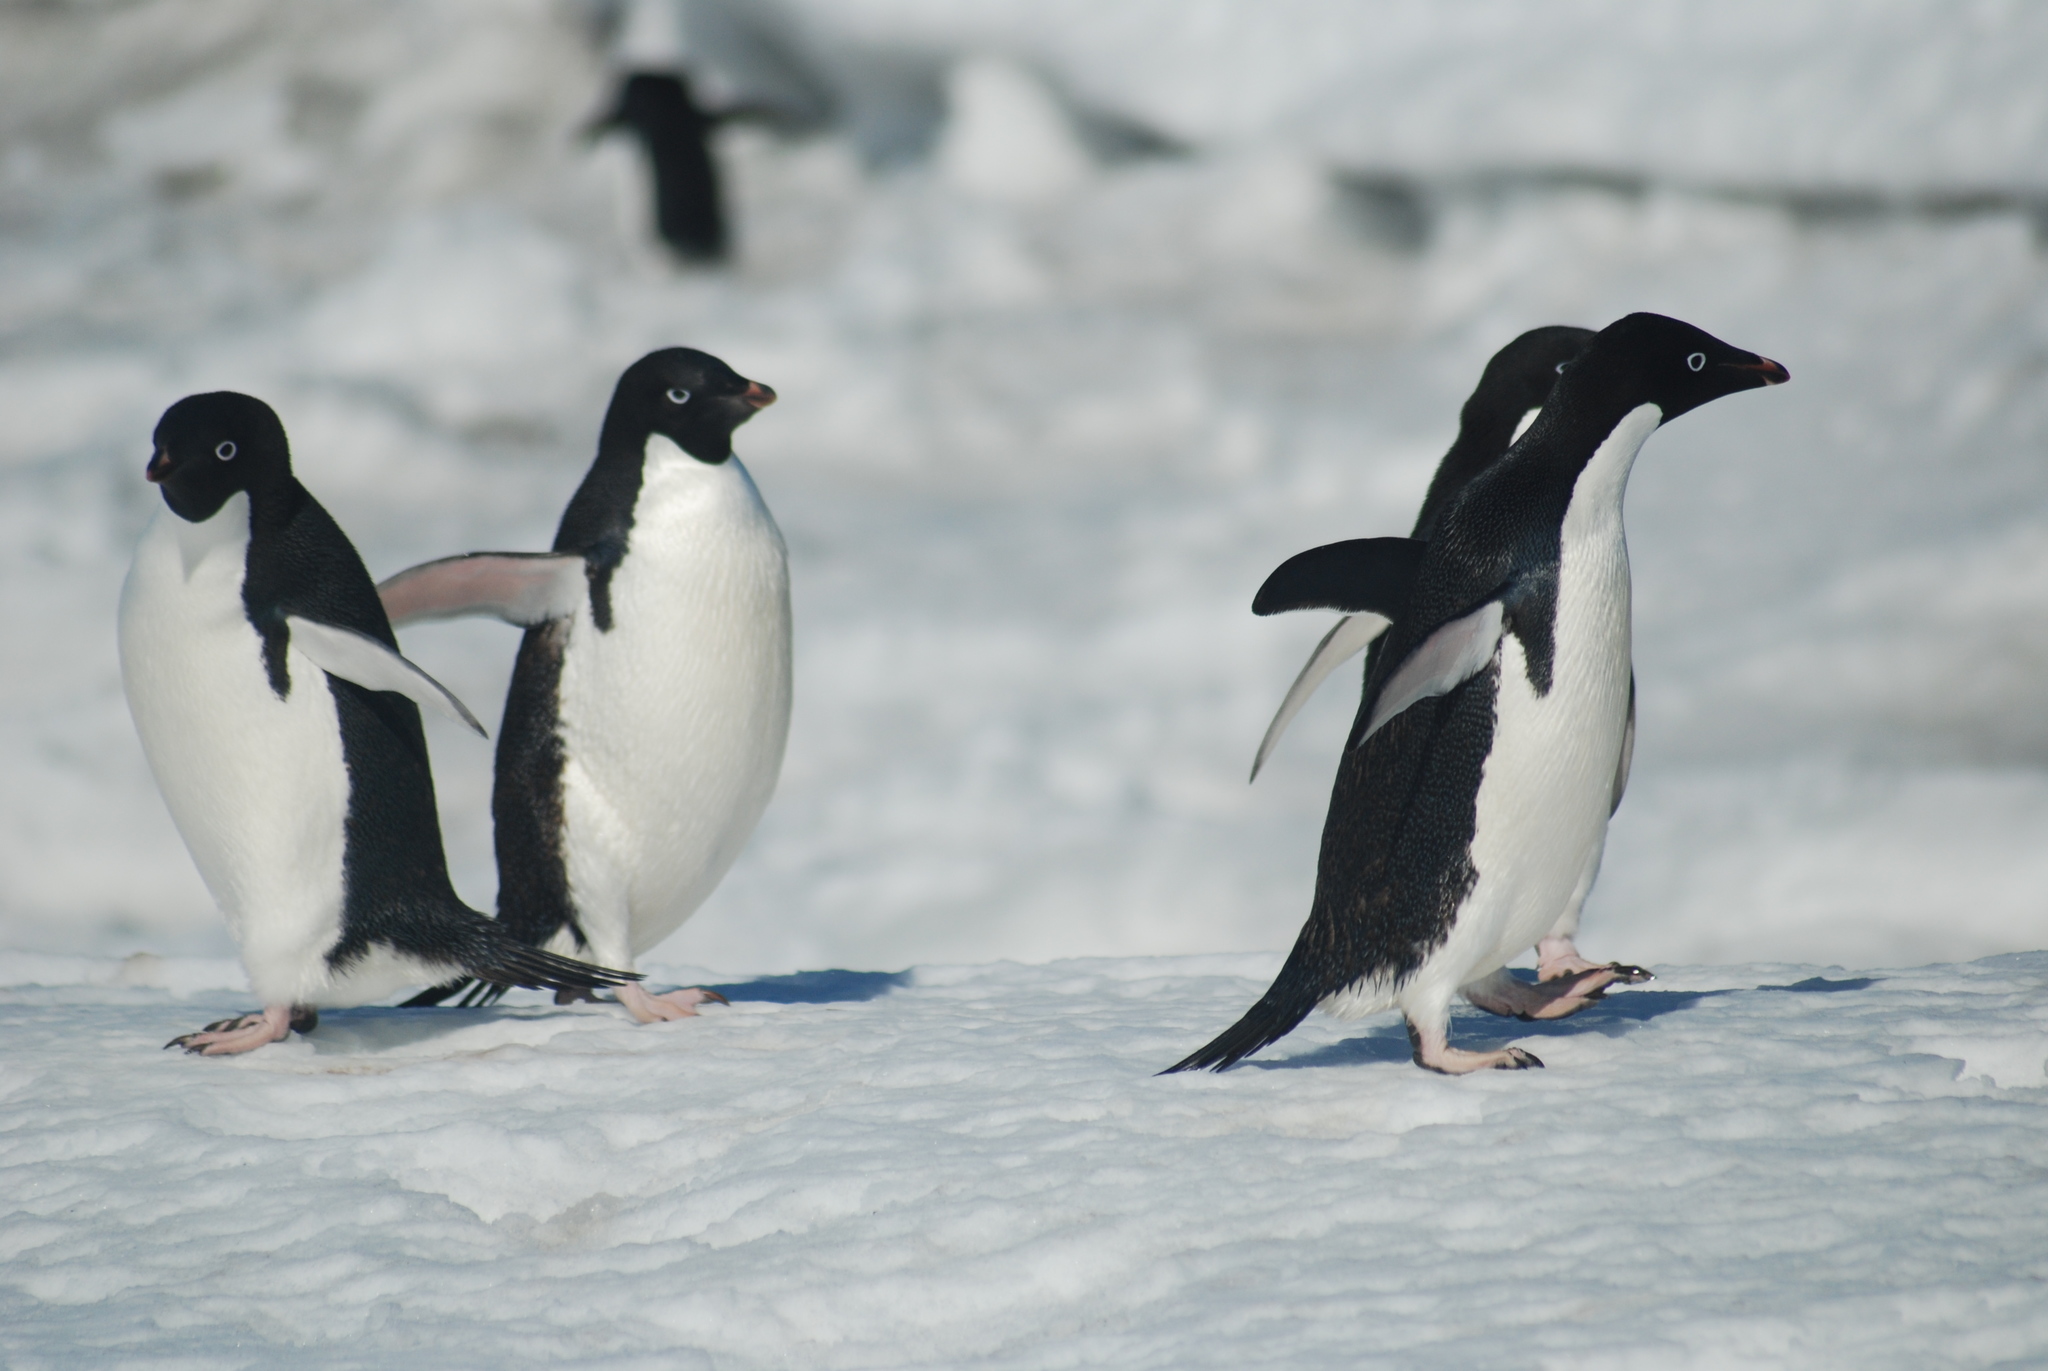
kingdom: Animalia
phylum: Chordata
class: Aves
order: Sphenisciformes
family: Spheniscidae
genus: Pygoscelis
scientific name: Pygoscelis adeliae
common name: Adelie penguin
